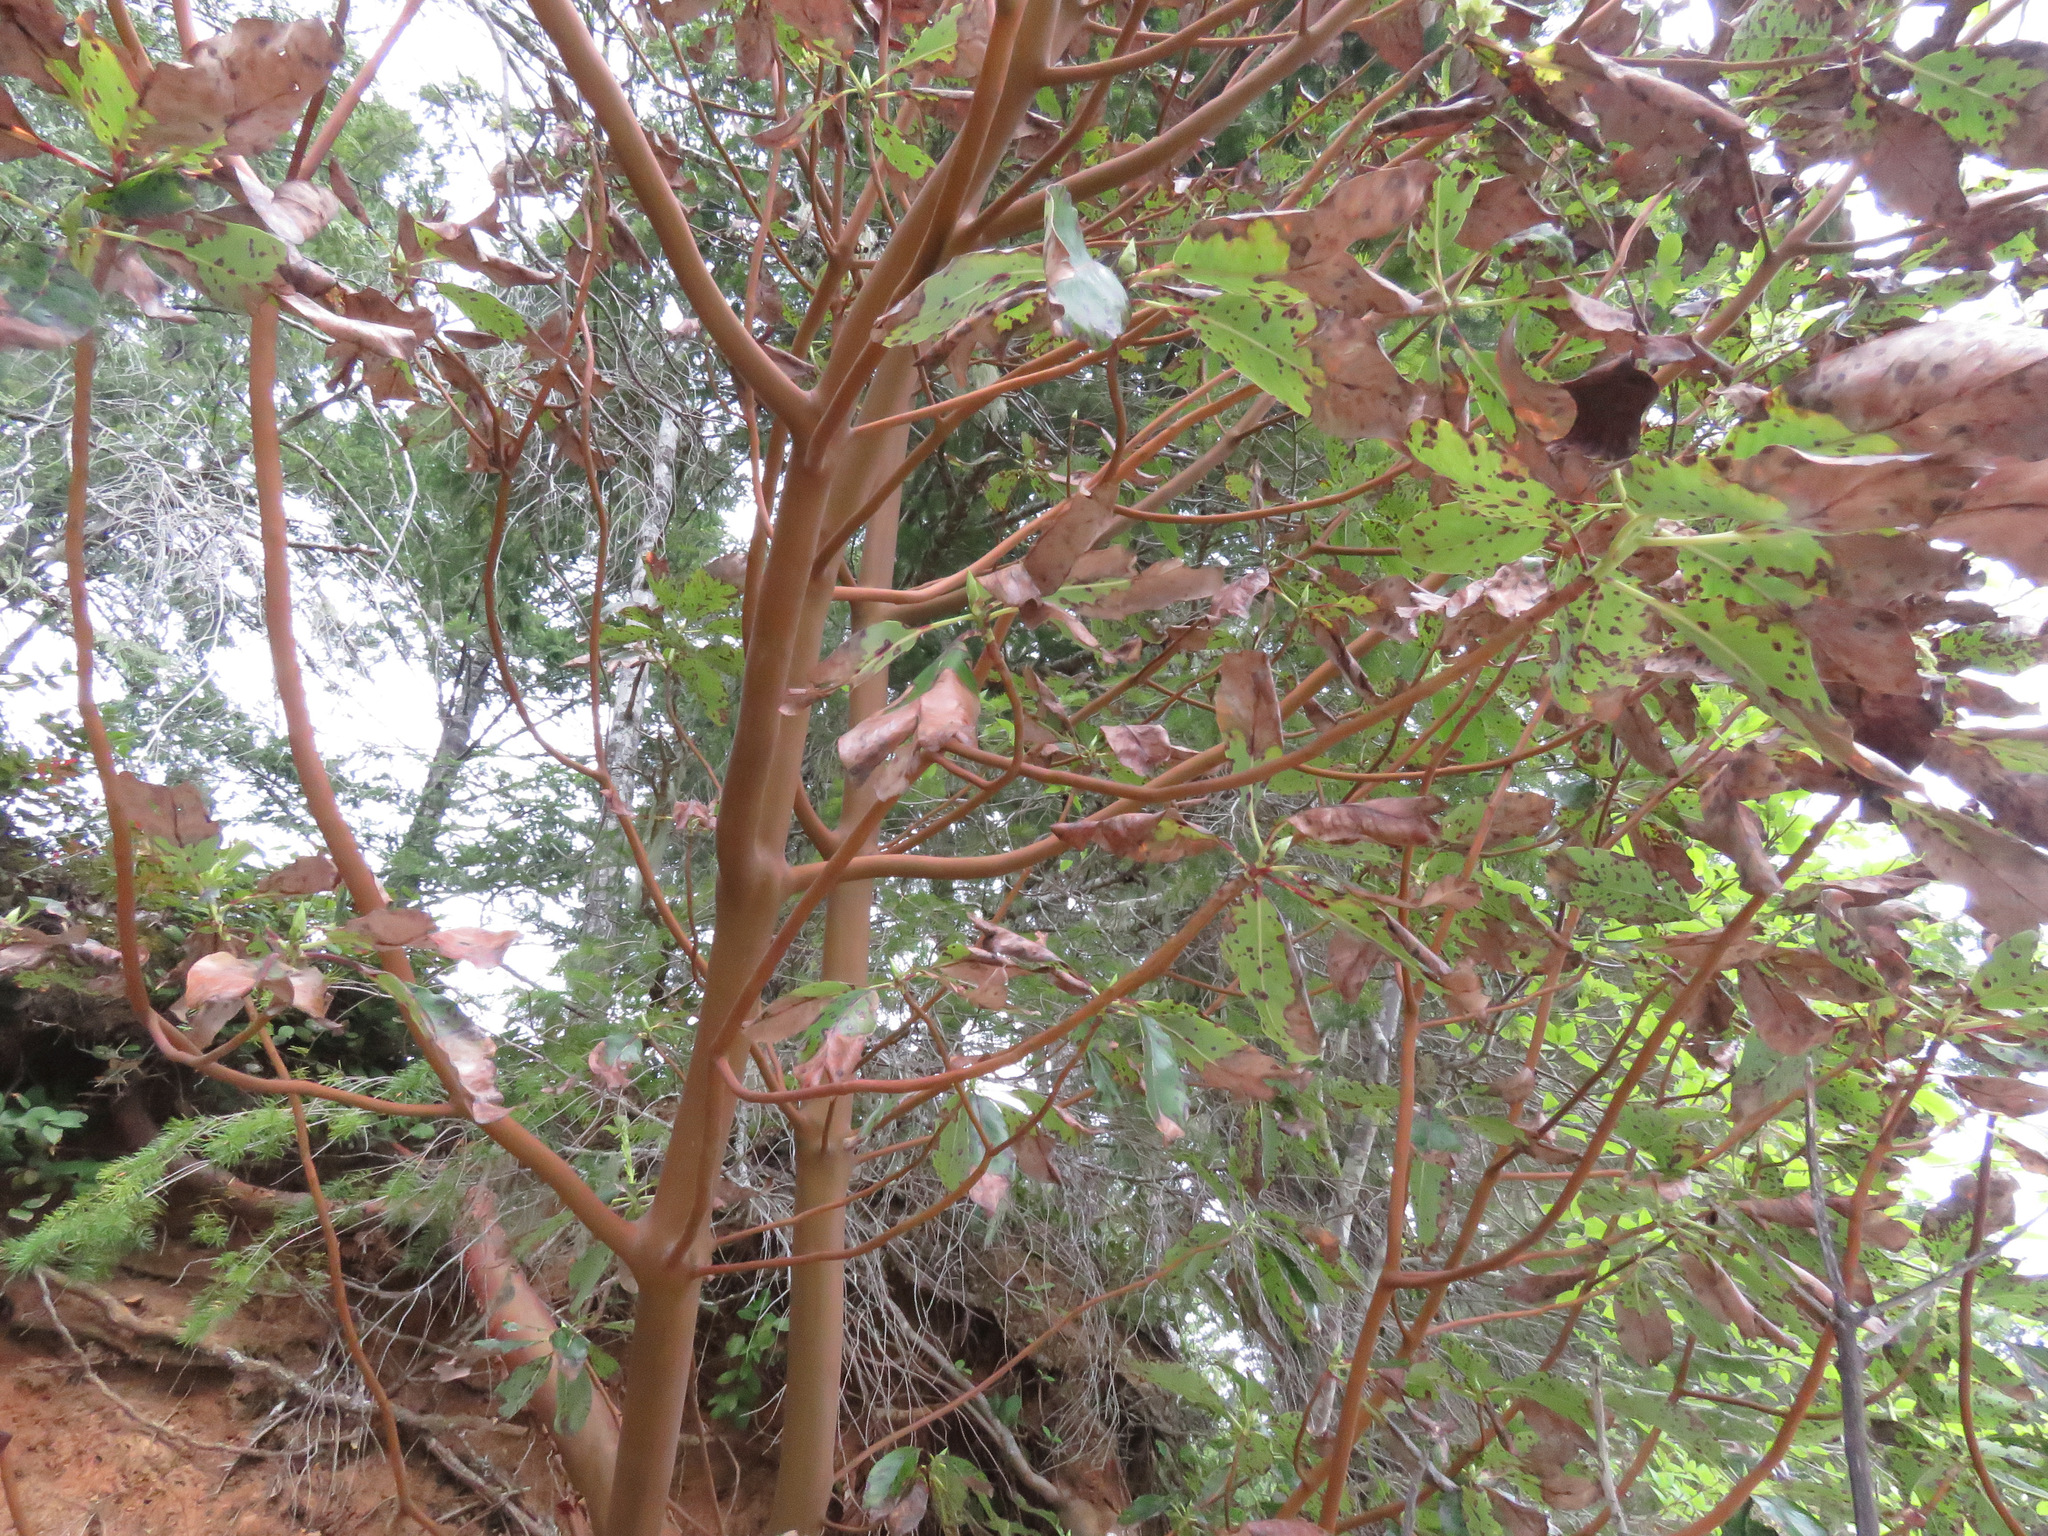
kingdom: Plantae
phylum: Tracheophyta
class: Magnoliopsida
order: Ericales
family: Ericaceae
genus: Arbutus
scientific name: Arbutus menziesii
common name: Pacific madrone
